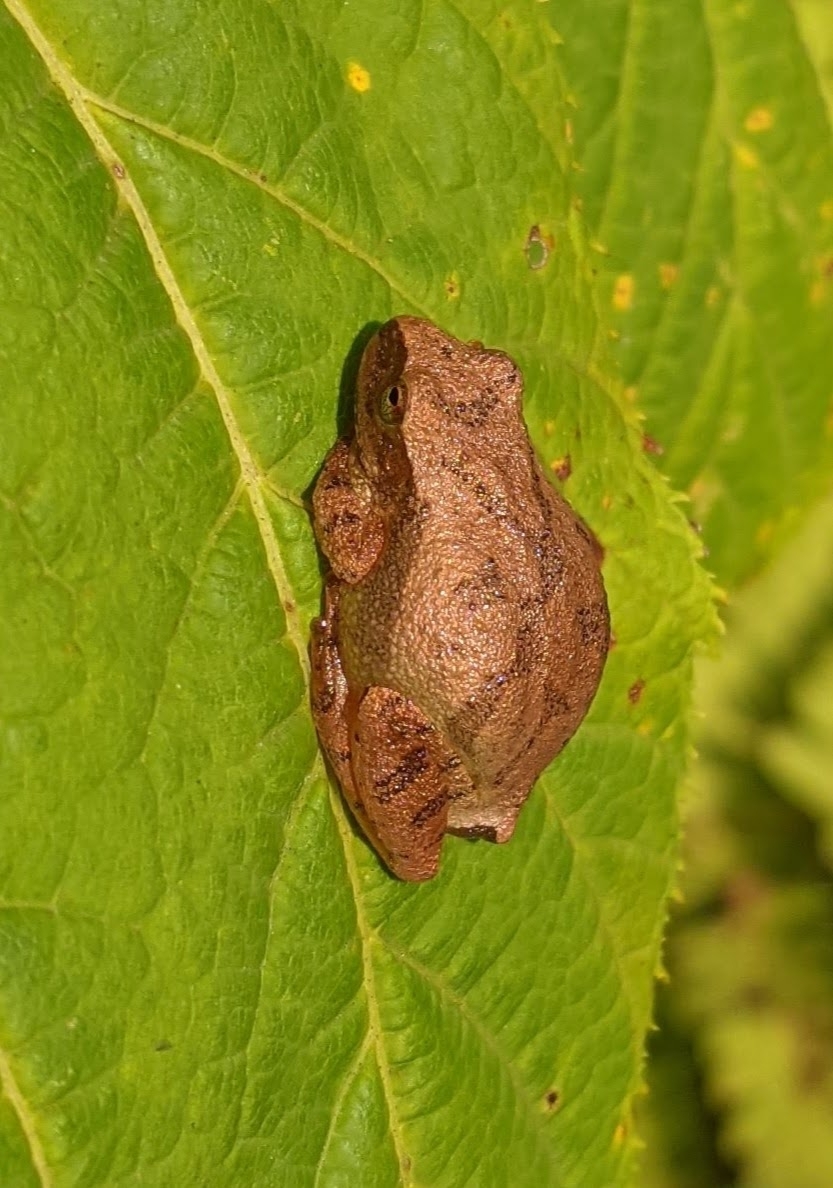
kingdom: Animalia
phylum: Chordata
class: Amphibia
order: Anura
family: Hylidae
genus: Pseudacris
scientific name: Pseudacris crucifer
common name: Spring peeper
